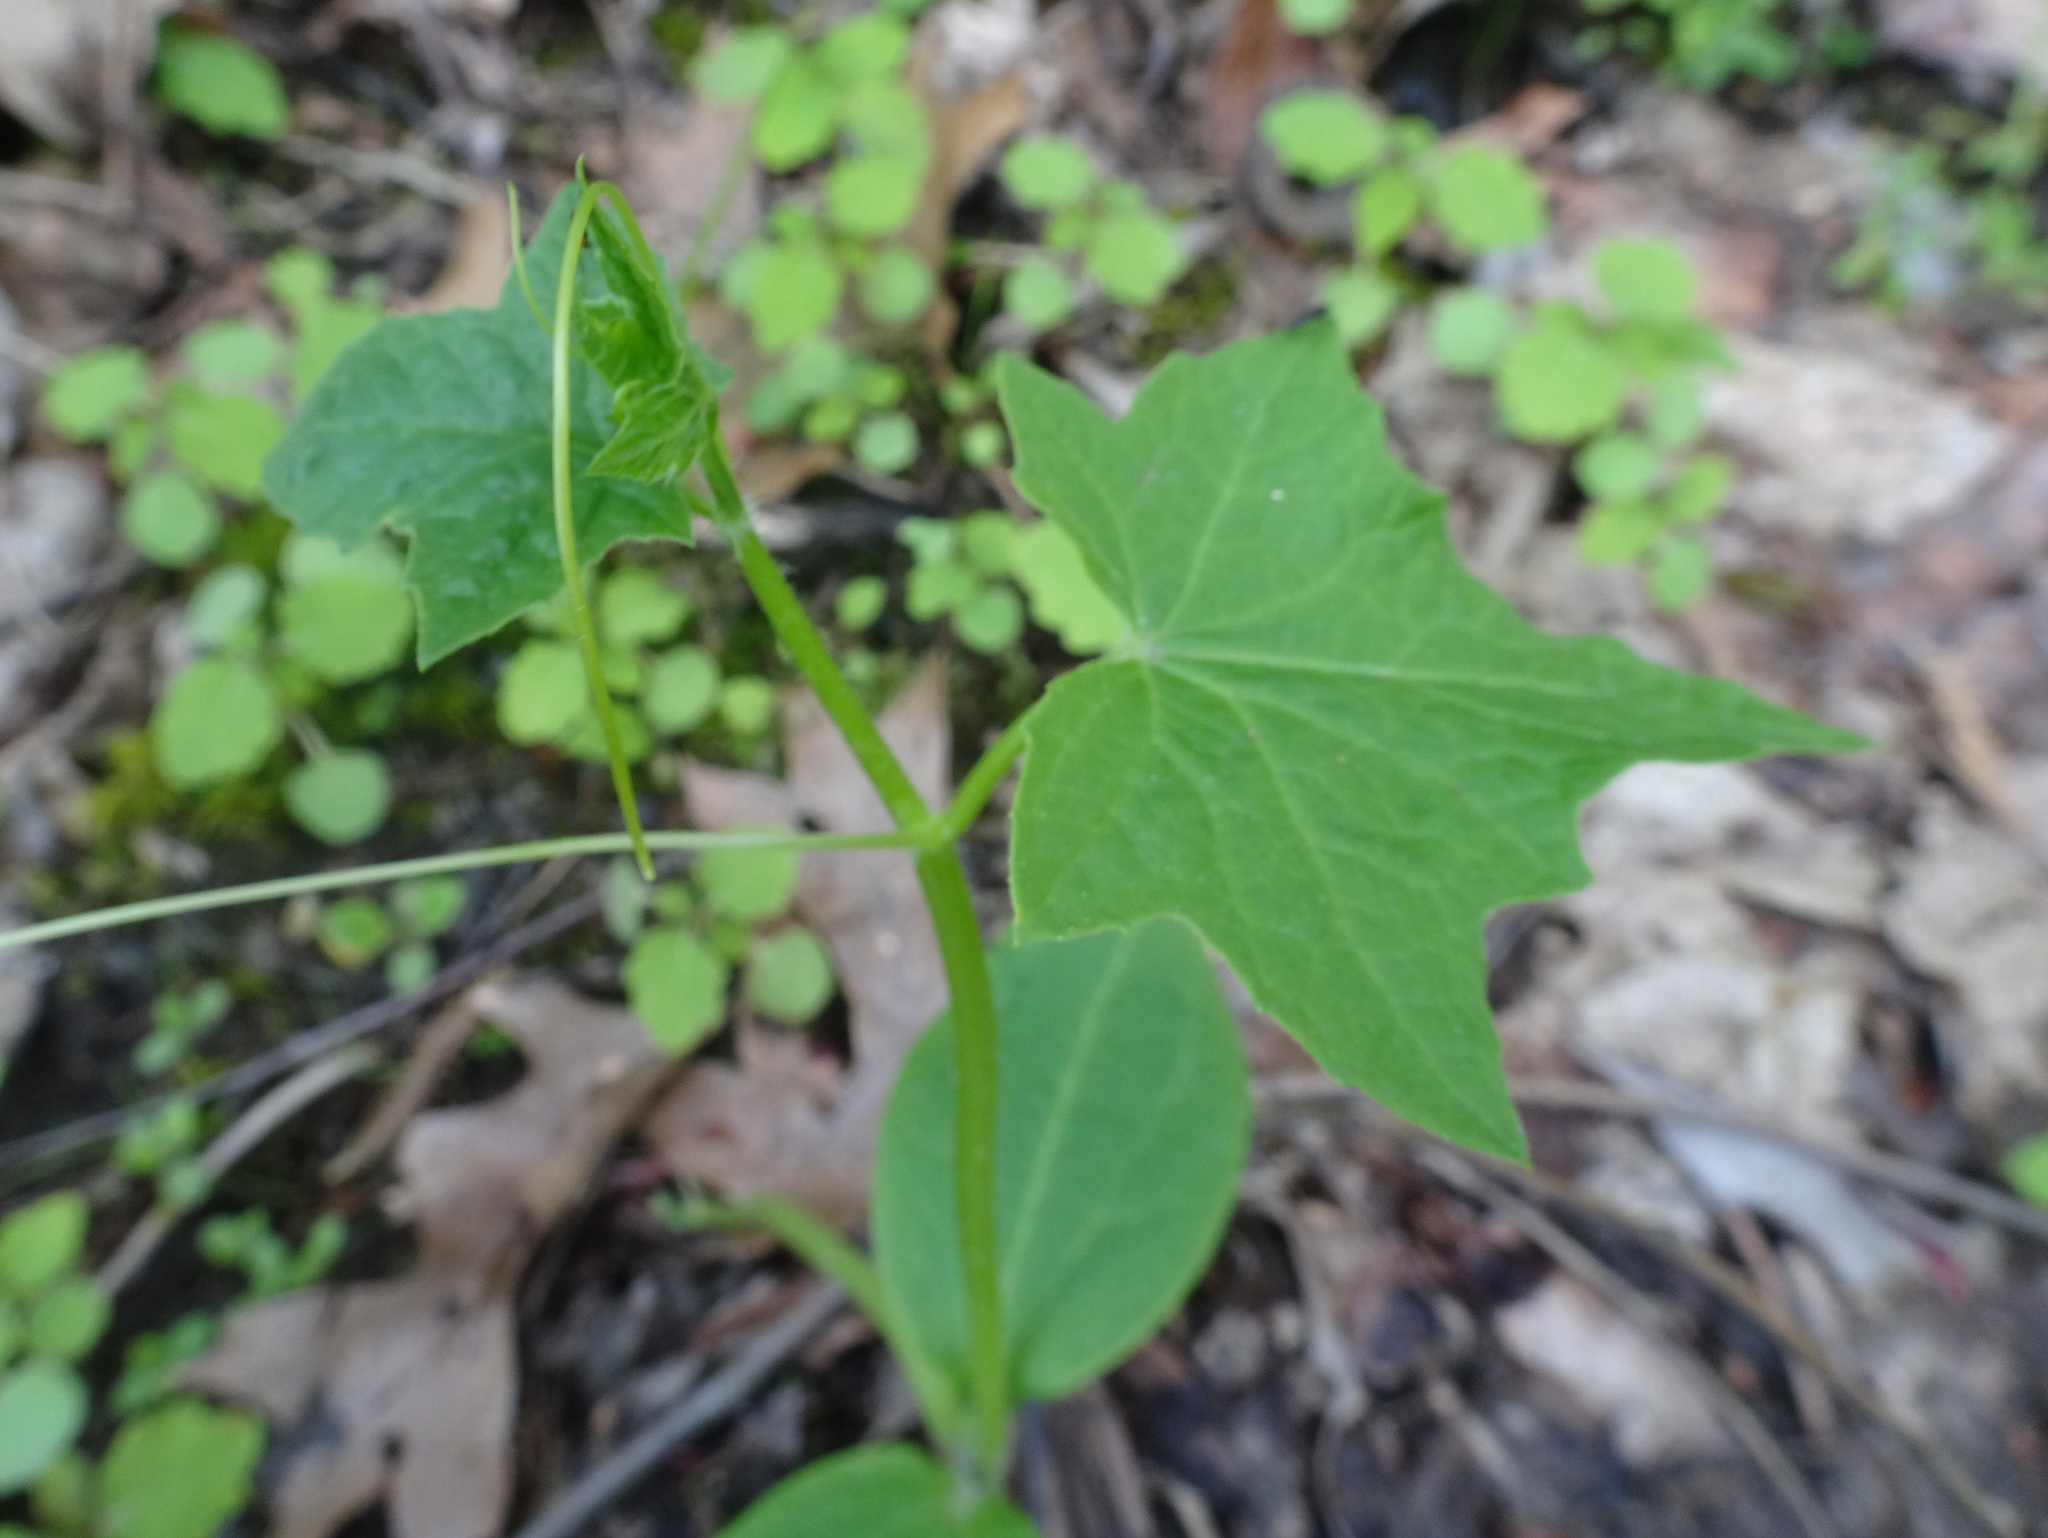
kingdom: Plantae
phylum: Tracheophyta
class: Magnoliopsida
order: Cucurbitales
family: Cucurbitaceae
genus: Echinocystis
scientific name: Echinocystis lobata
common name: Wild cucumber
